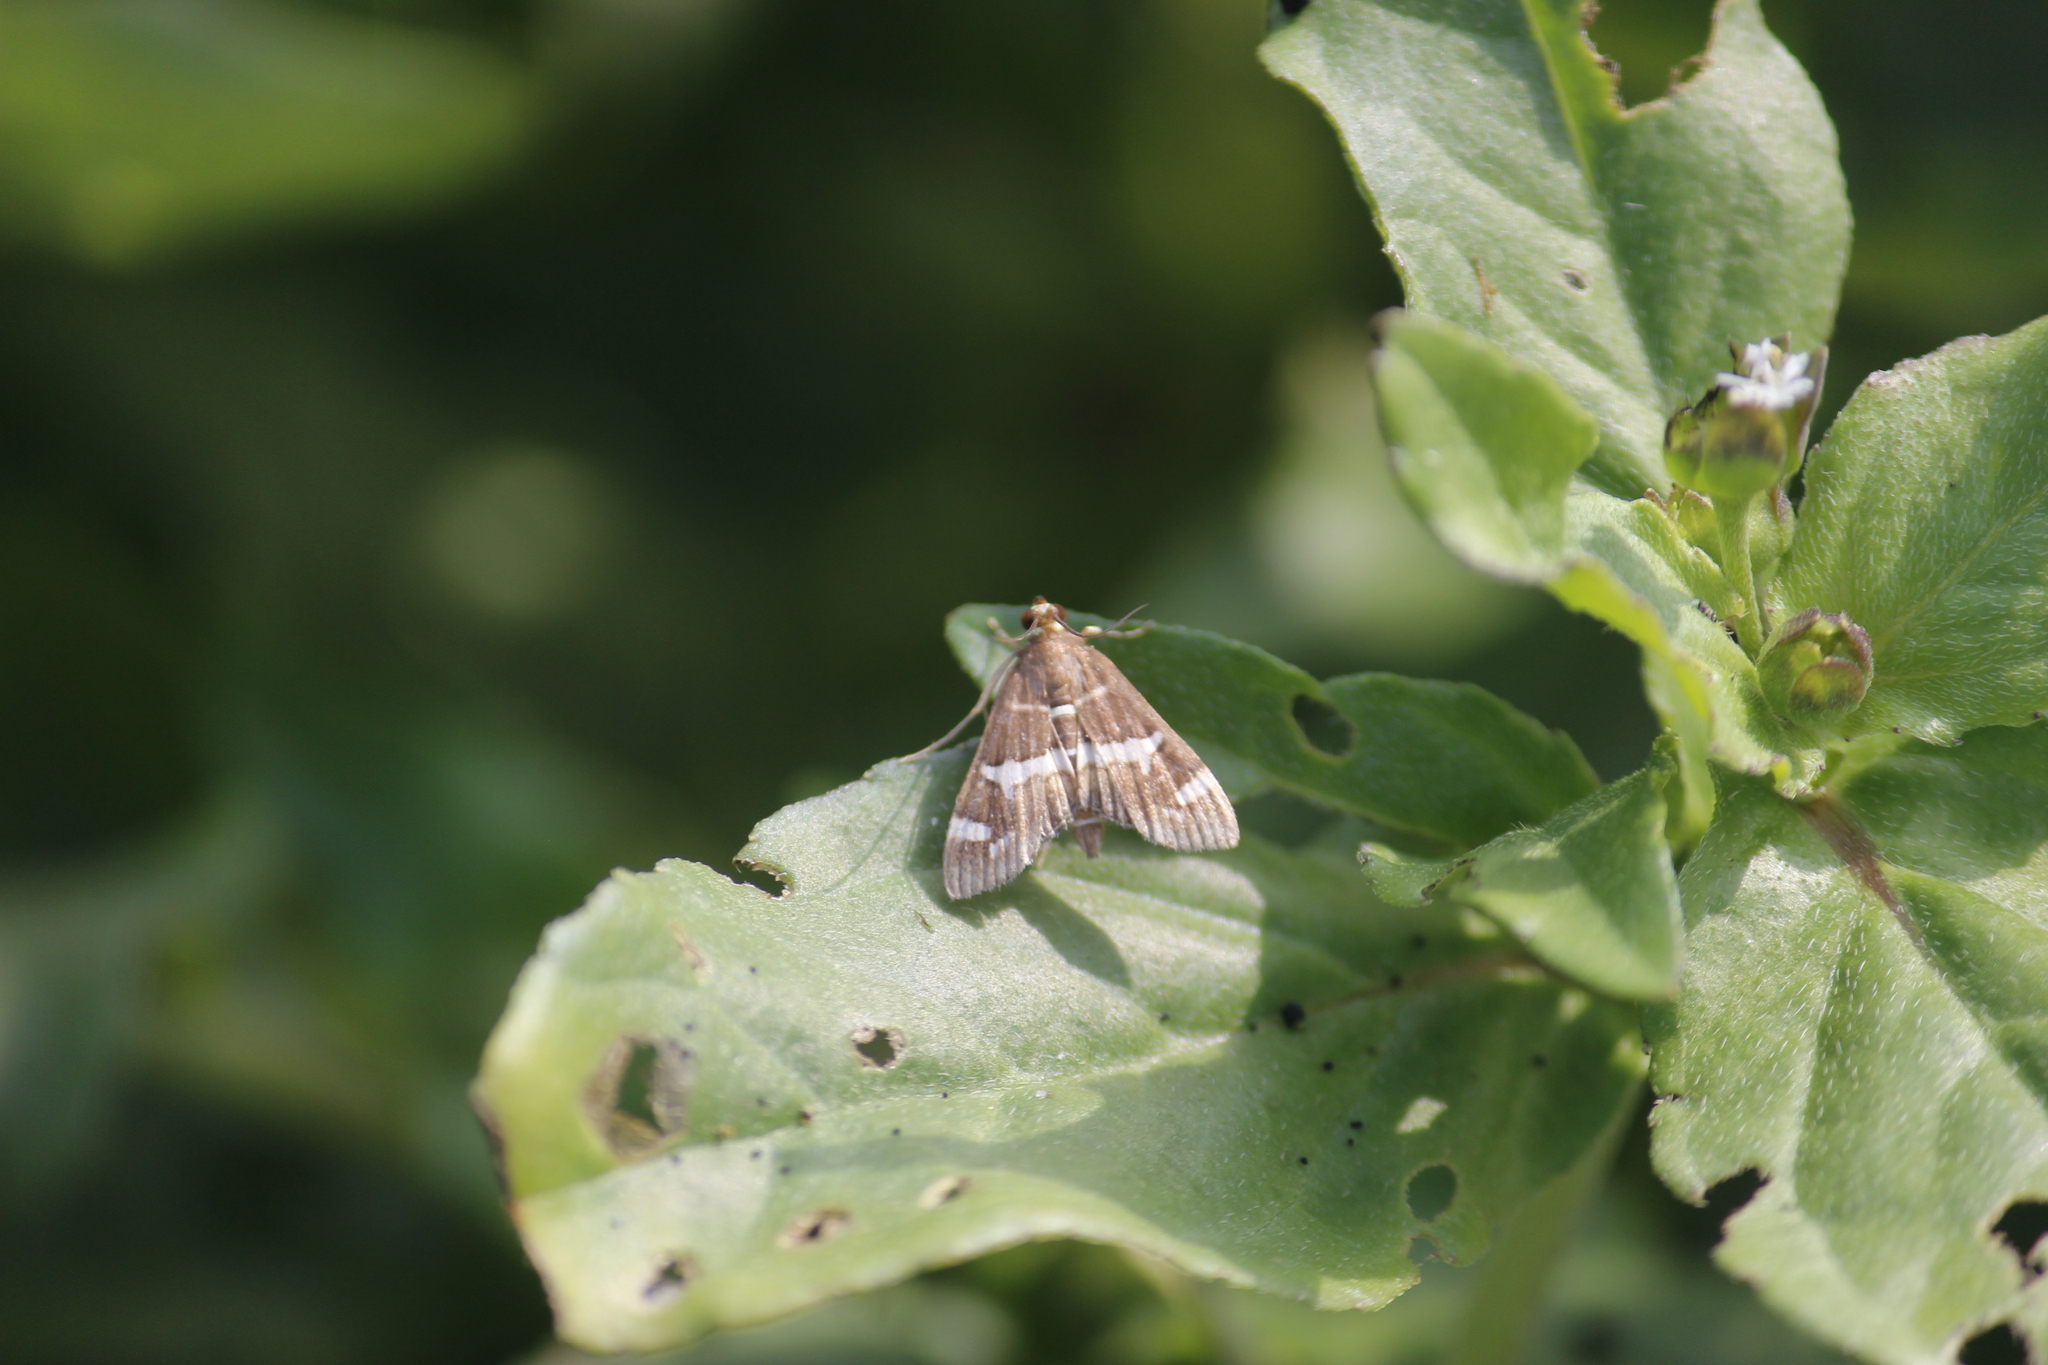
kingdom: Animalia
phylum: Arthropoda
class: Insecta
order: Lepidoptera
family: Crambidae
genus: Spoladea
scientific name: Spoladea recurvalis
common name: Beet webworm moth
